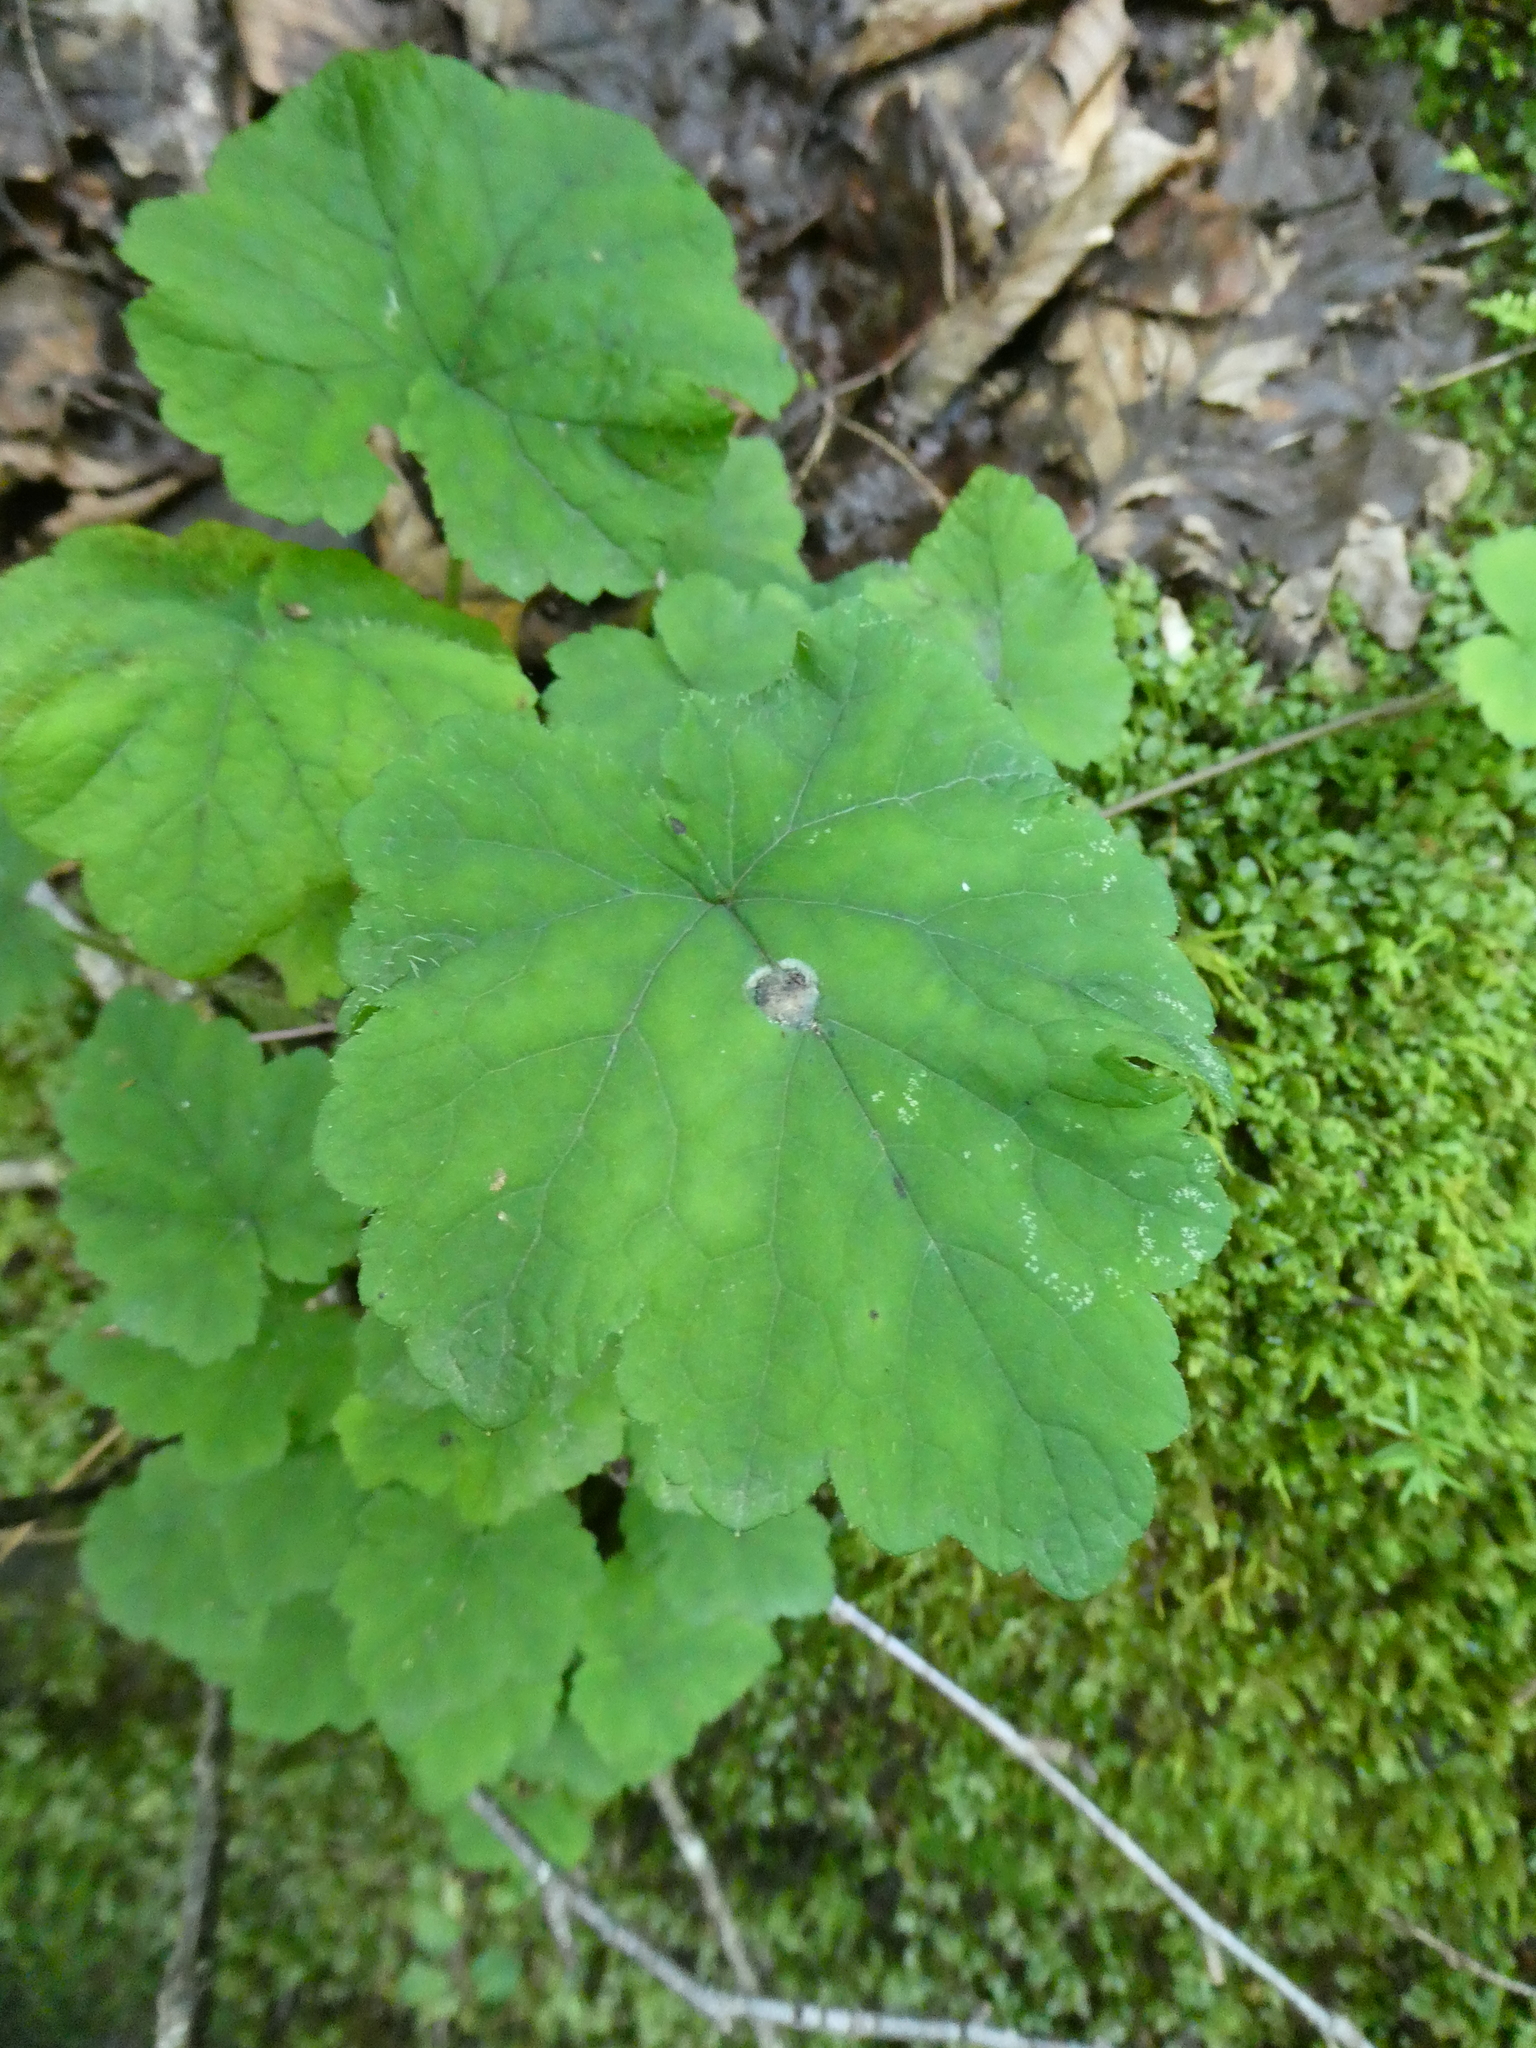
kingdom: Plantae
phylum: Tracheophyta
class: Magnoliopsida
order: Saxifragales
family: Saxifragaceae
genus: Tiarella
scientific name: Tiarella stolonifera
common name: Stoloniferous foamflower
